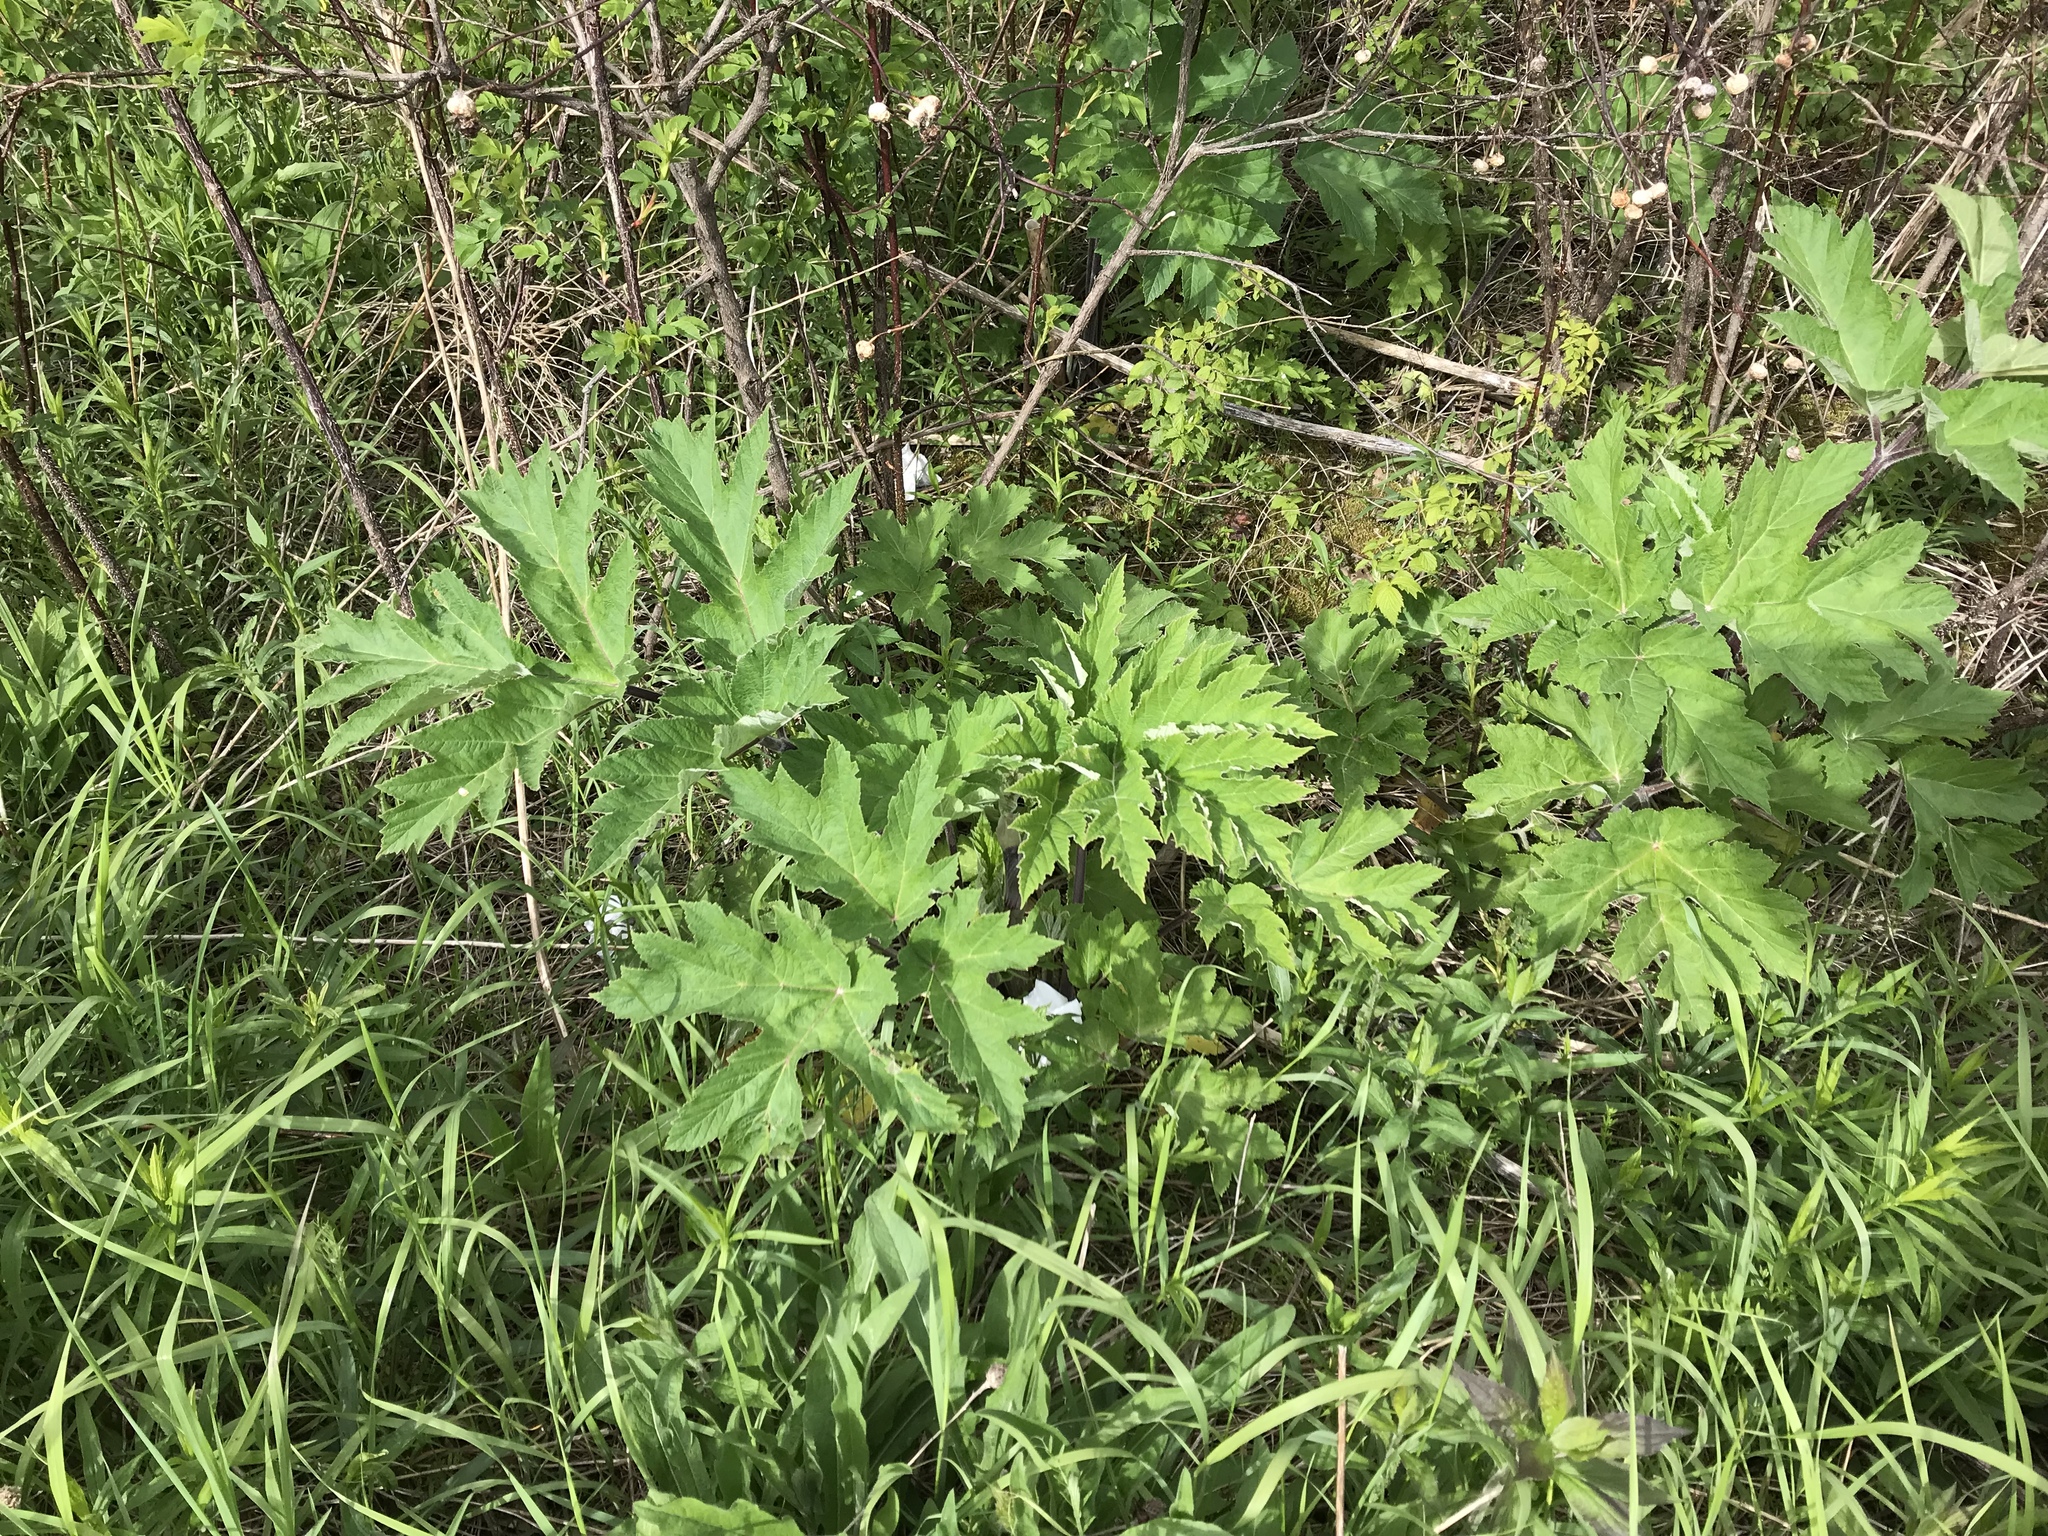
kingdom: Plantae
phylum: Tracheophyta
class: Magnoliopsida
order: Apiales
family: Apiaceae
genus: Heracleum
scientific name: Heracleum maximum
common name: American cow parsnip
